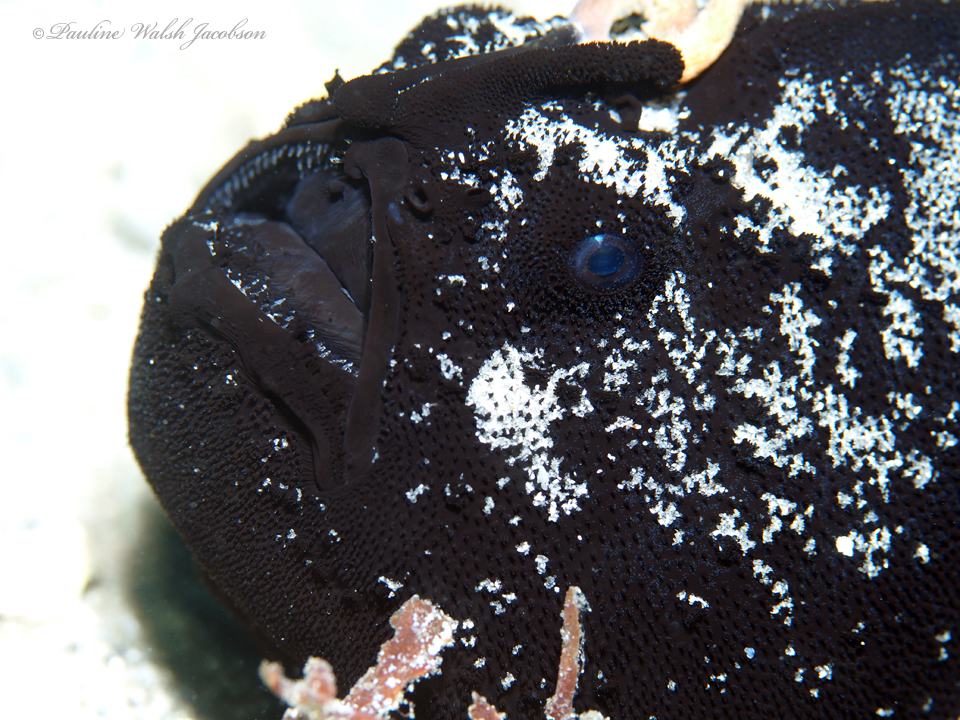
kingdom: Animalia
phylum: Chordata
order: Lophiiformes
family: Antennariidae
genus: Antennarius
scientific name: Antennarius striatus
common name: Striated frogfish
